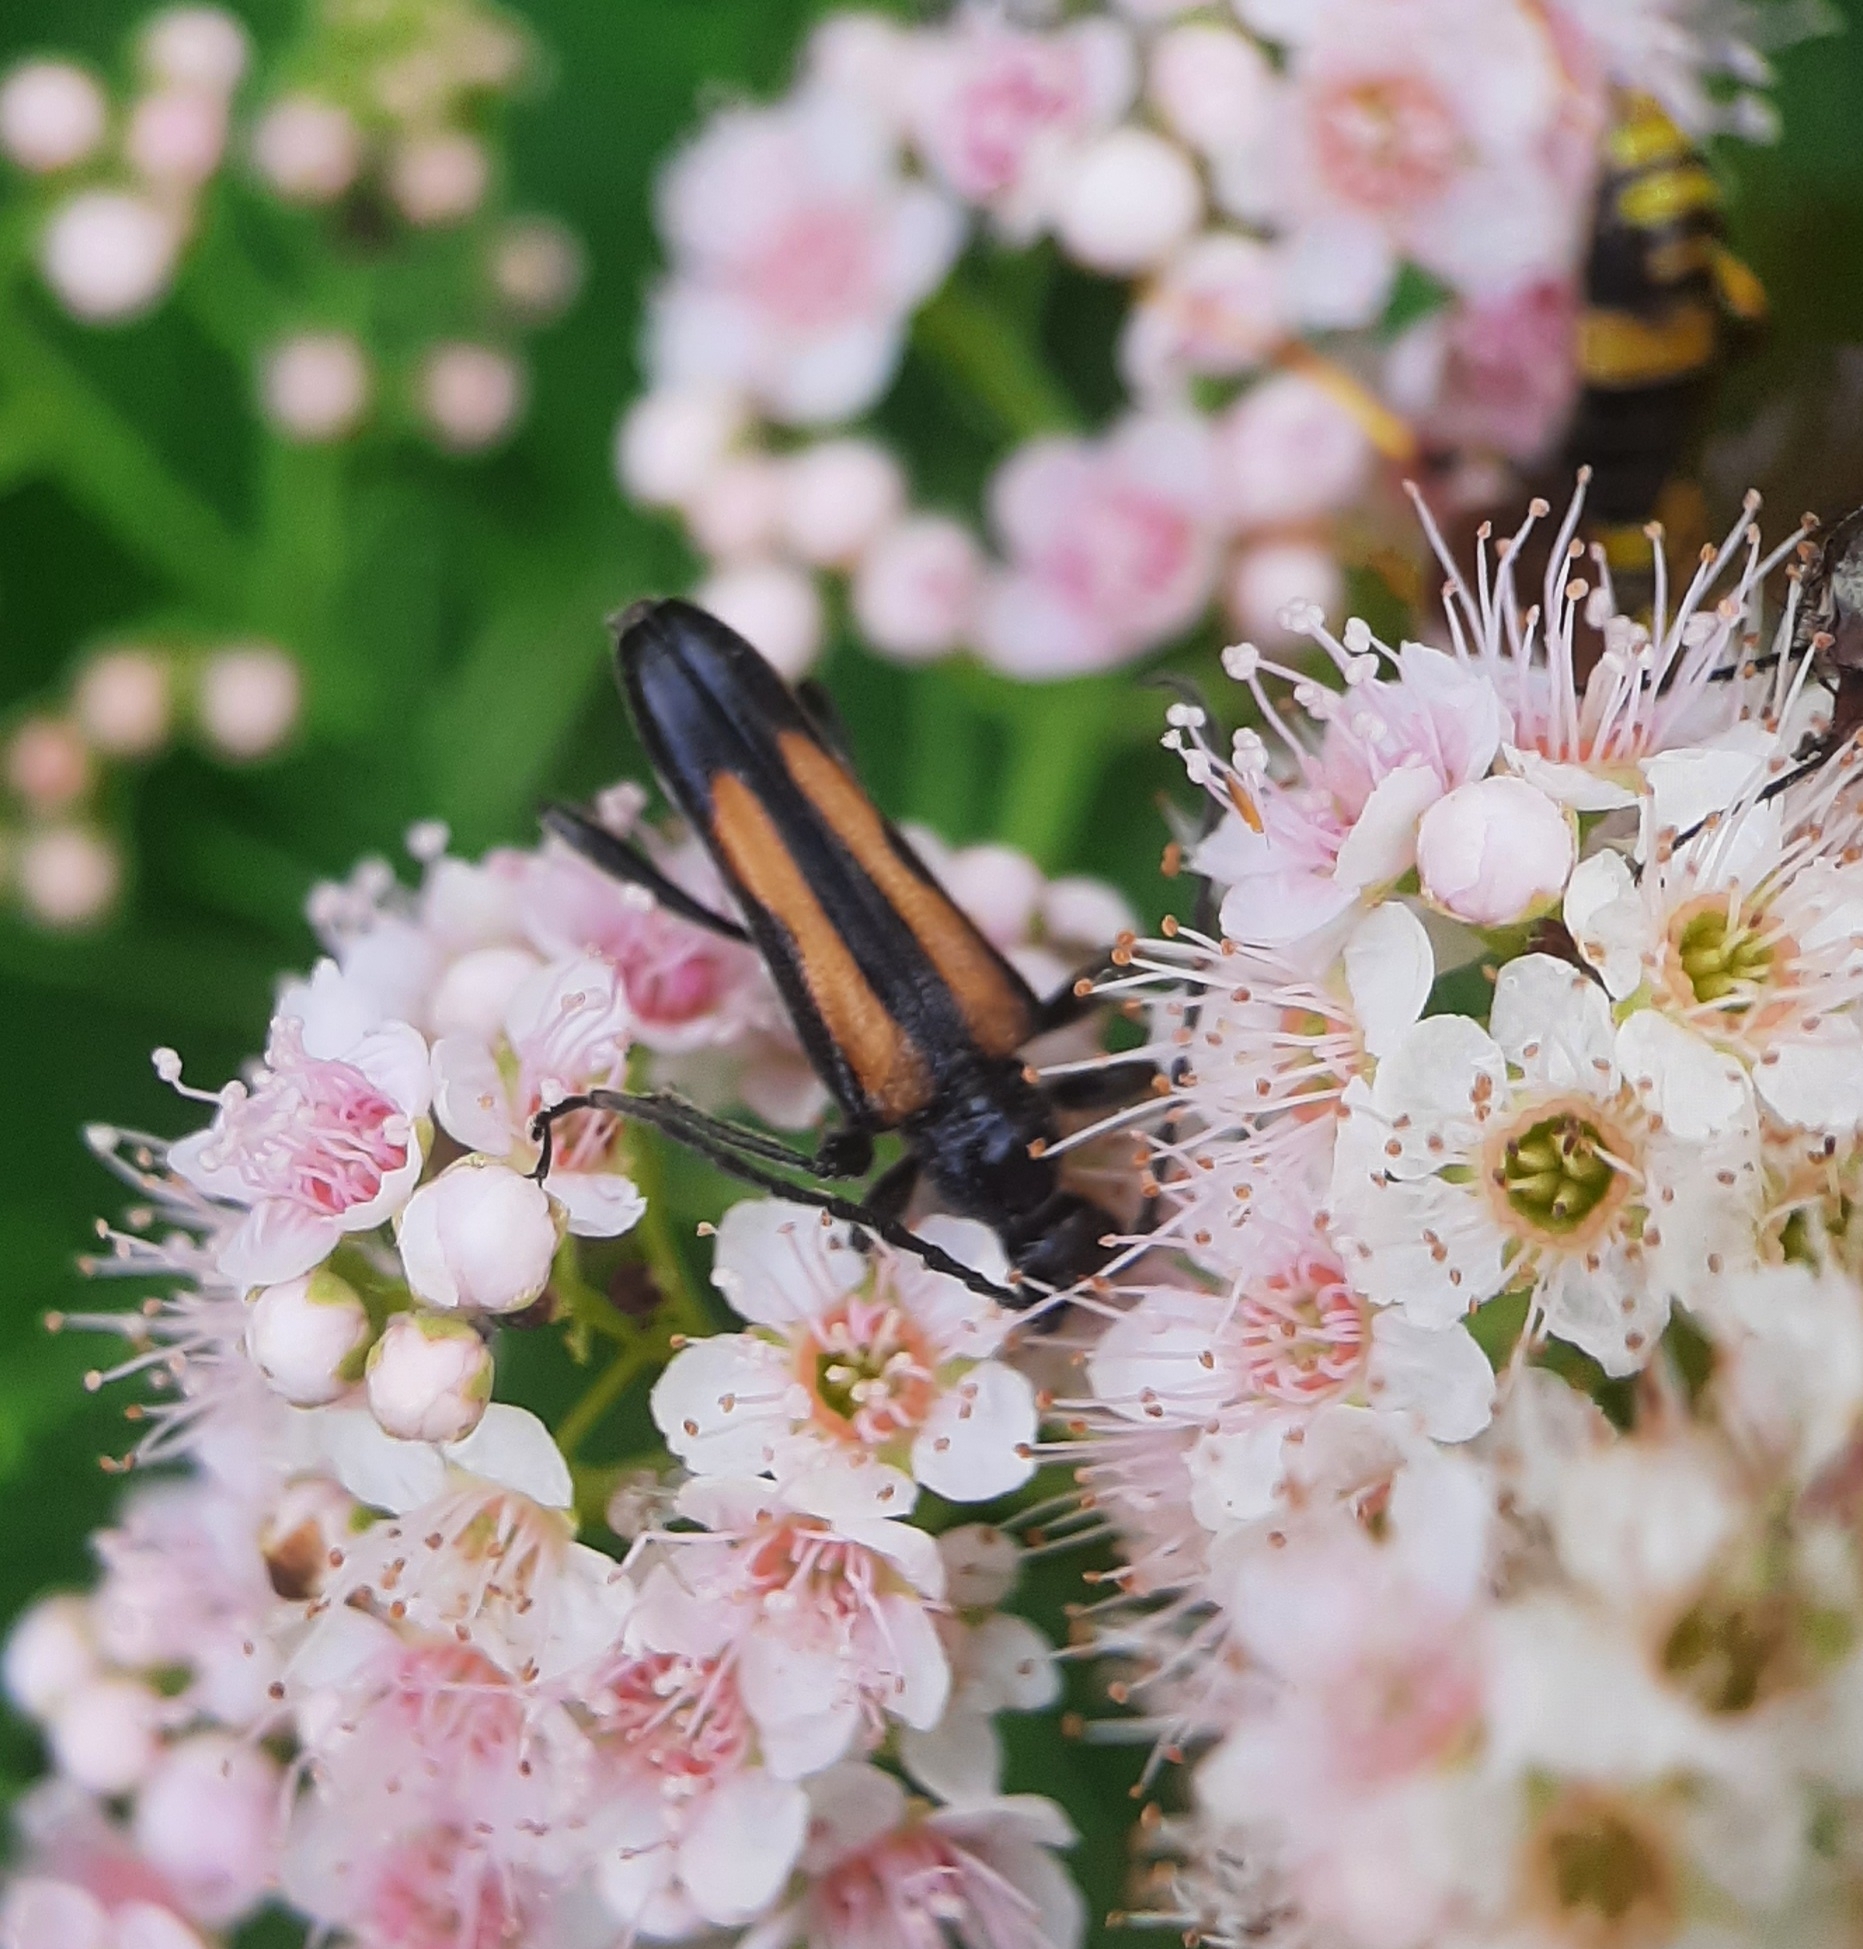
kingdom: Animalia
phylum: Arthropoda
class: Insecta
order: Coleoptera
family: Cerambycidae
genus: Strangalepta
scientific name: Strangalepta abbreviata
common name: Strangalepta flower longhorn beetle
